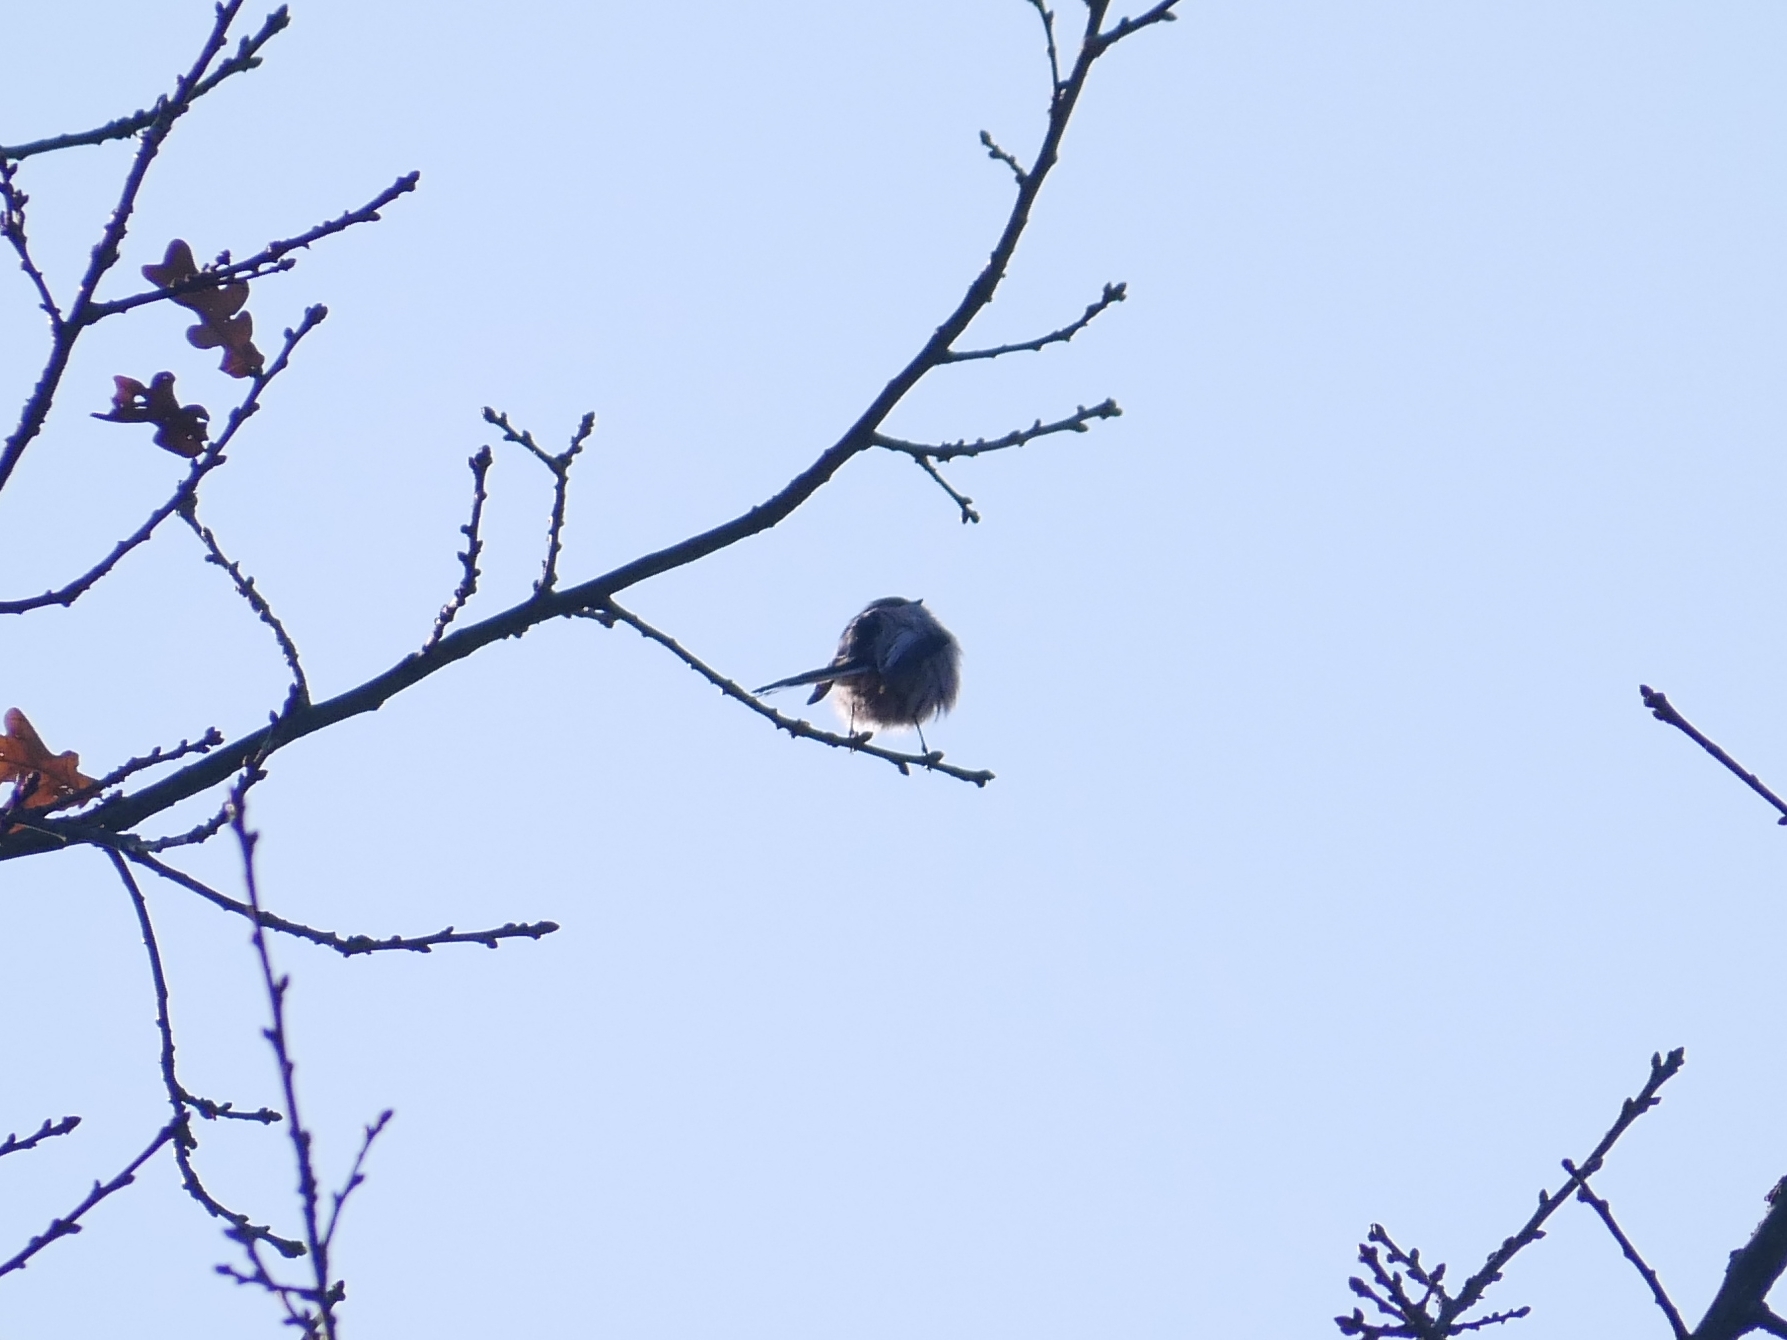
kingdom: Animalia
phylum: Chordata
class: Aves
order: Passeriformes
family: Aegithalidae
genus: Aegithalos
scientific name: Aegithalos caudatus
